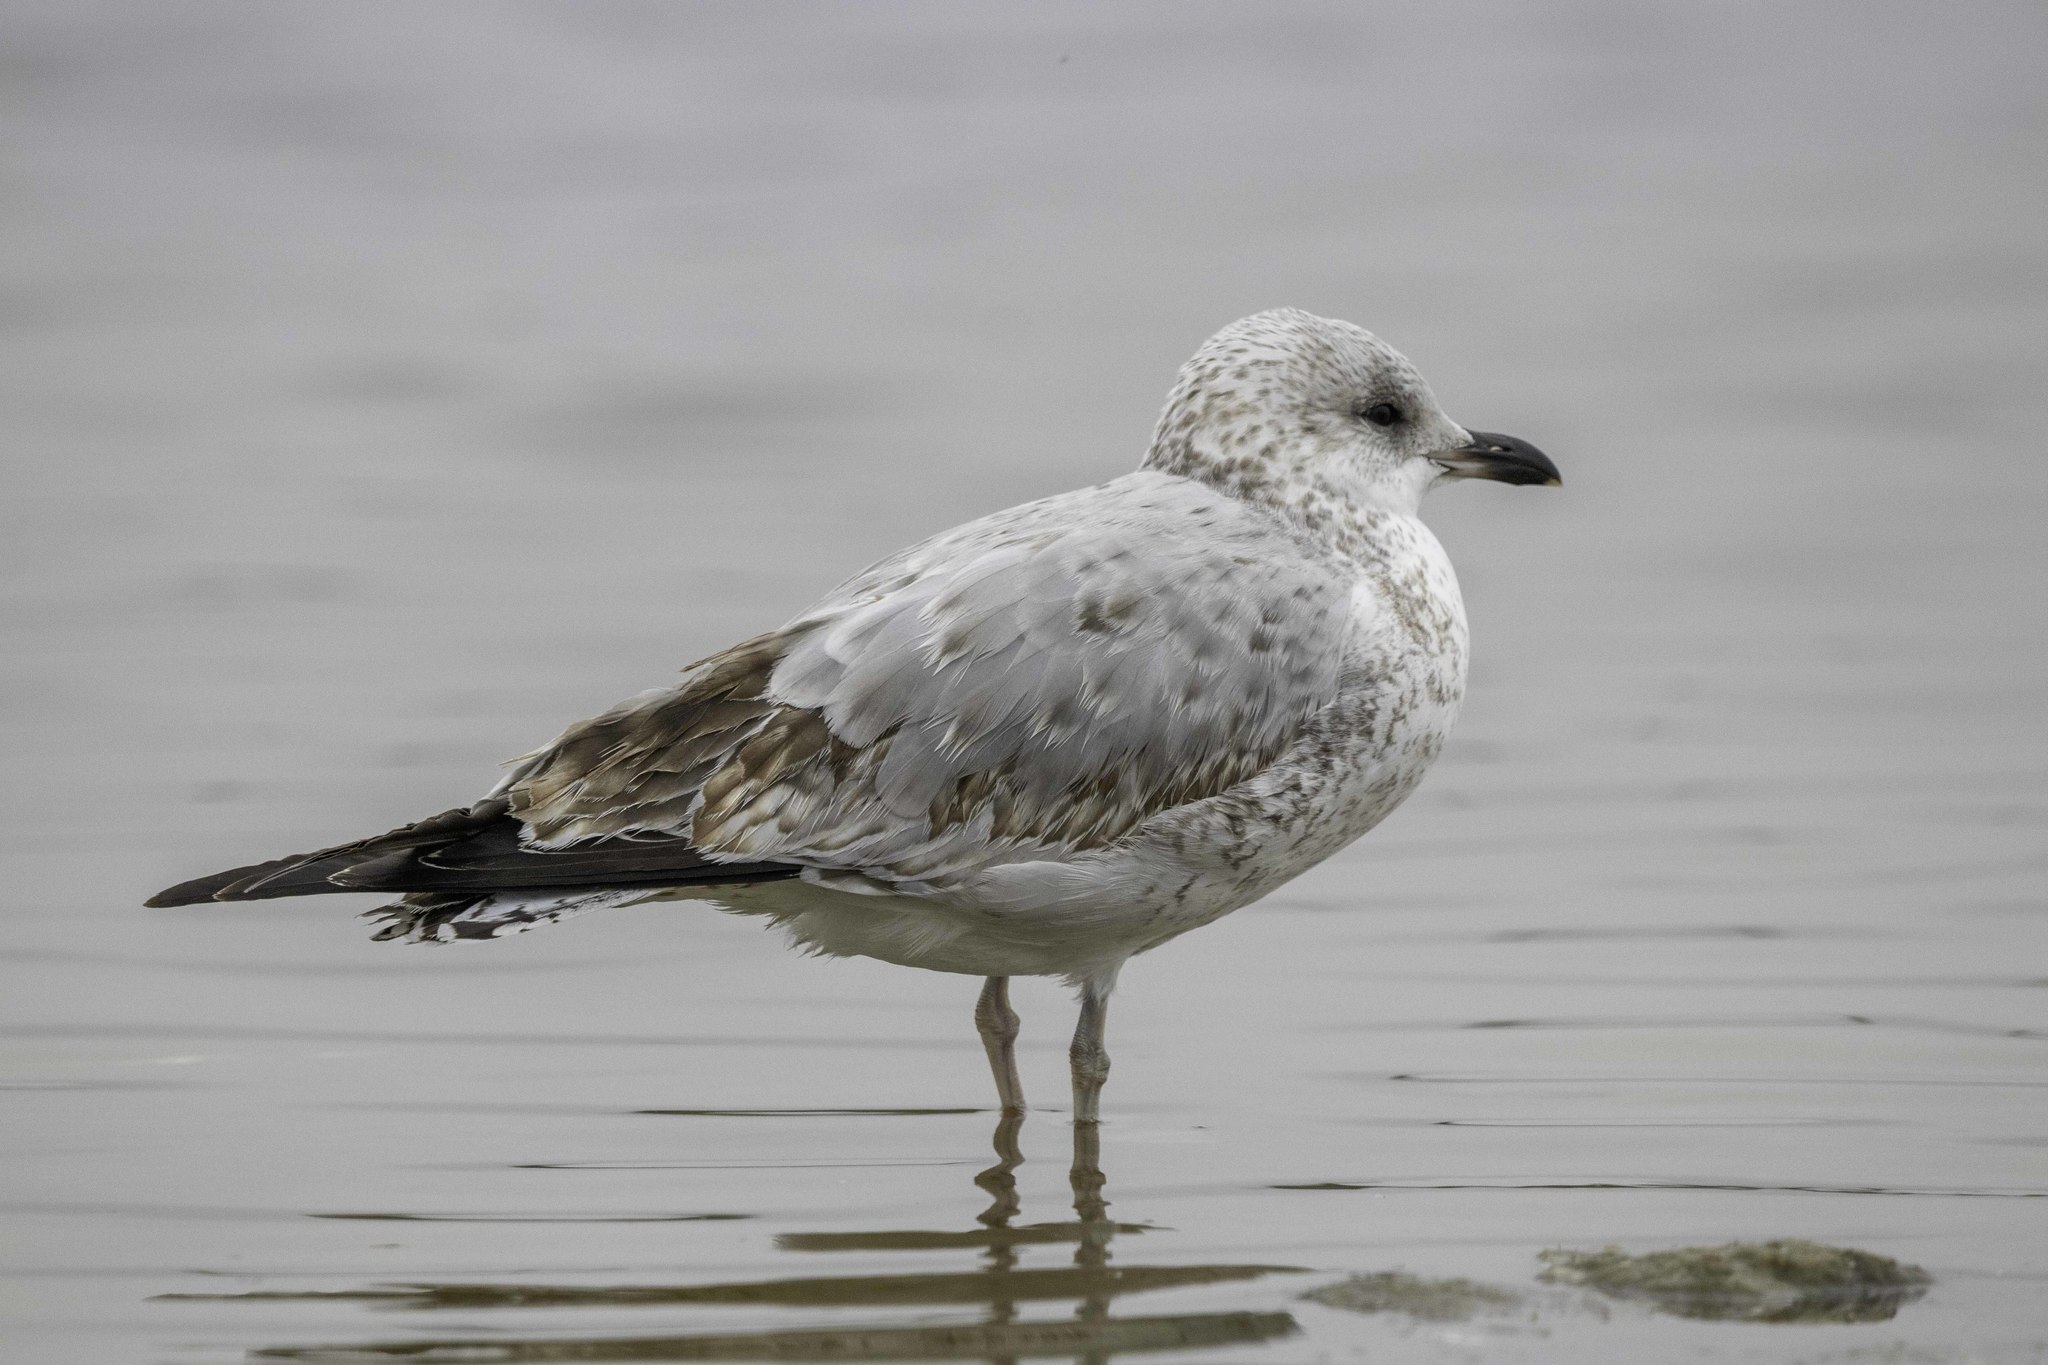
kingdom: Animalia
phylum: Chordata
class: Aves
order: Charadriiformes
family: Laridae
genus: Larus
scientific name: Larus delawarensis
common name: Ring-billed gull
